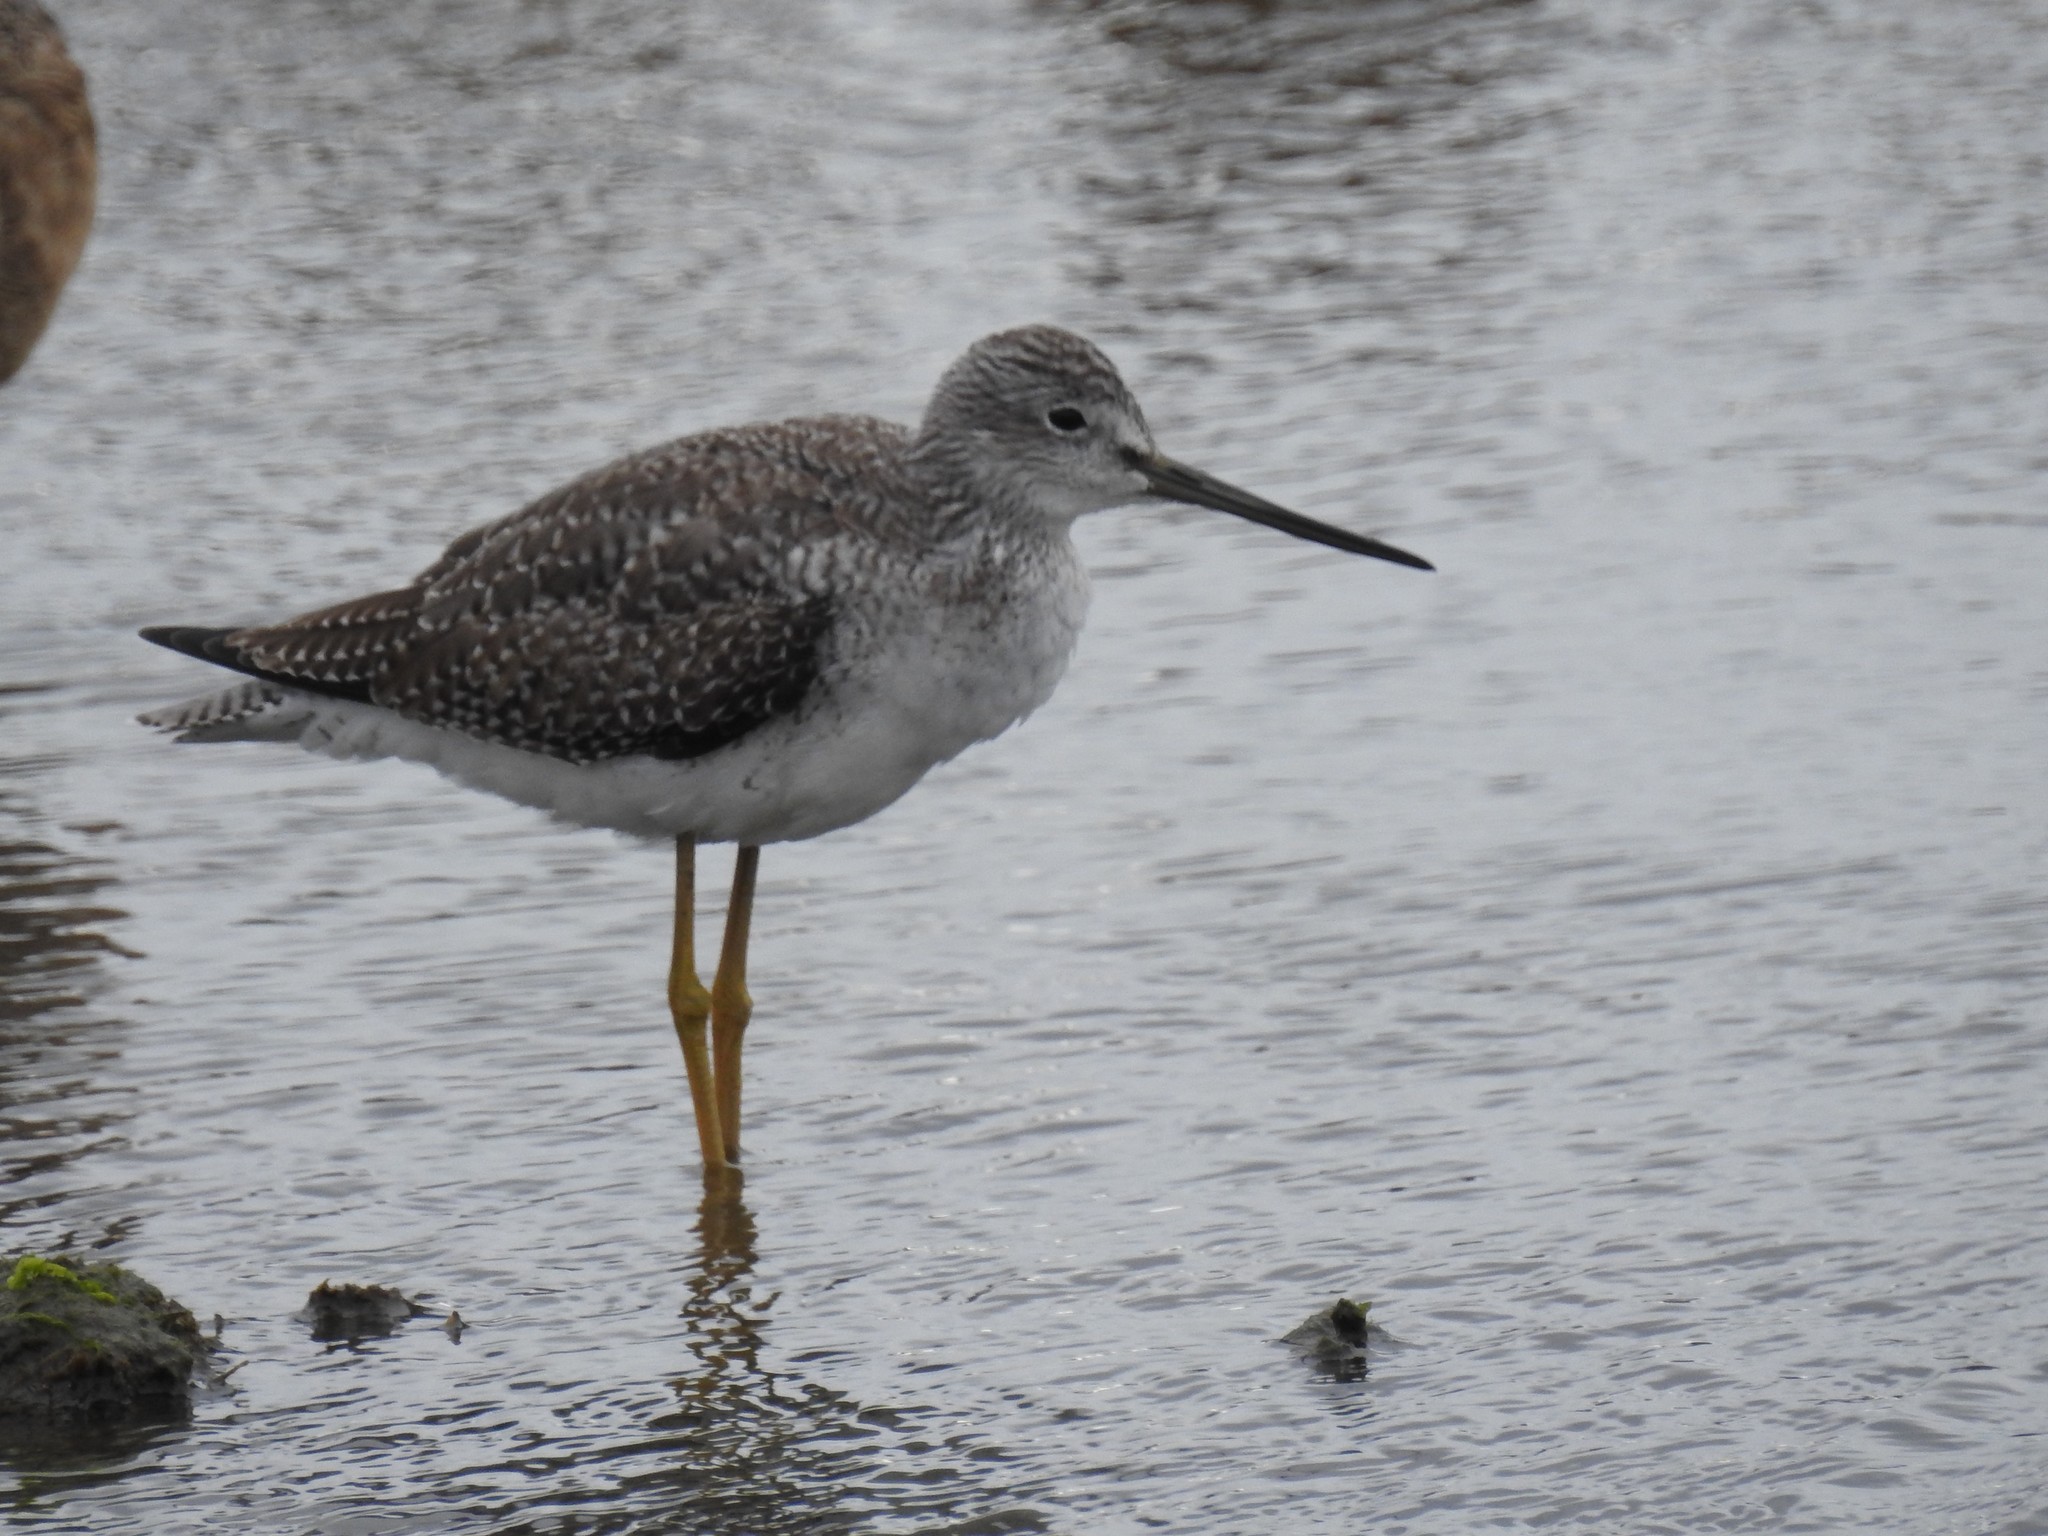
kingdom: Animalia
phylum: Chordata
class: Aves
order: Charadriiformes
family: Scolopacidae
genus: Tringa
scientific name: Tringa melanoleuca
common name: Greater yellowlegs
